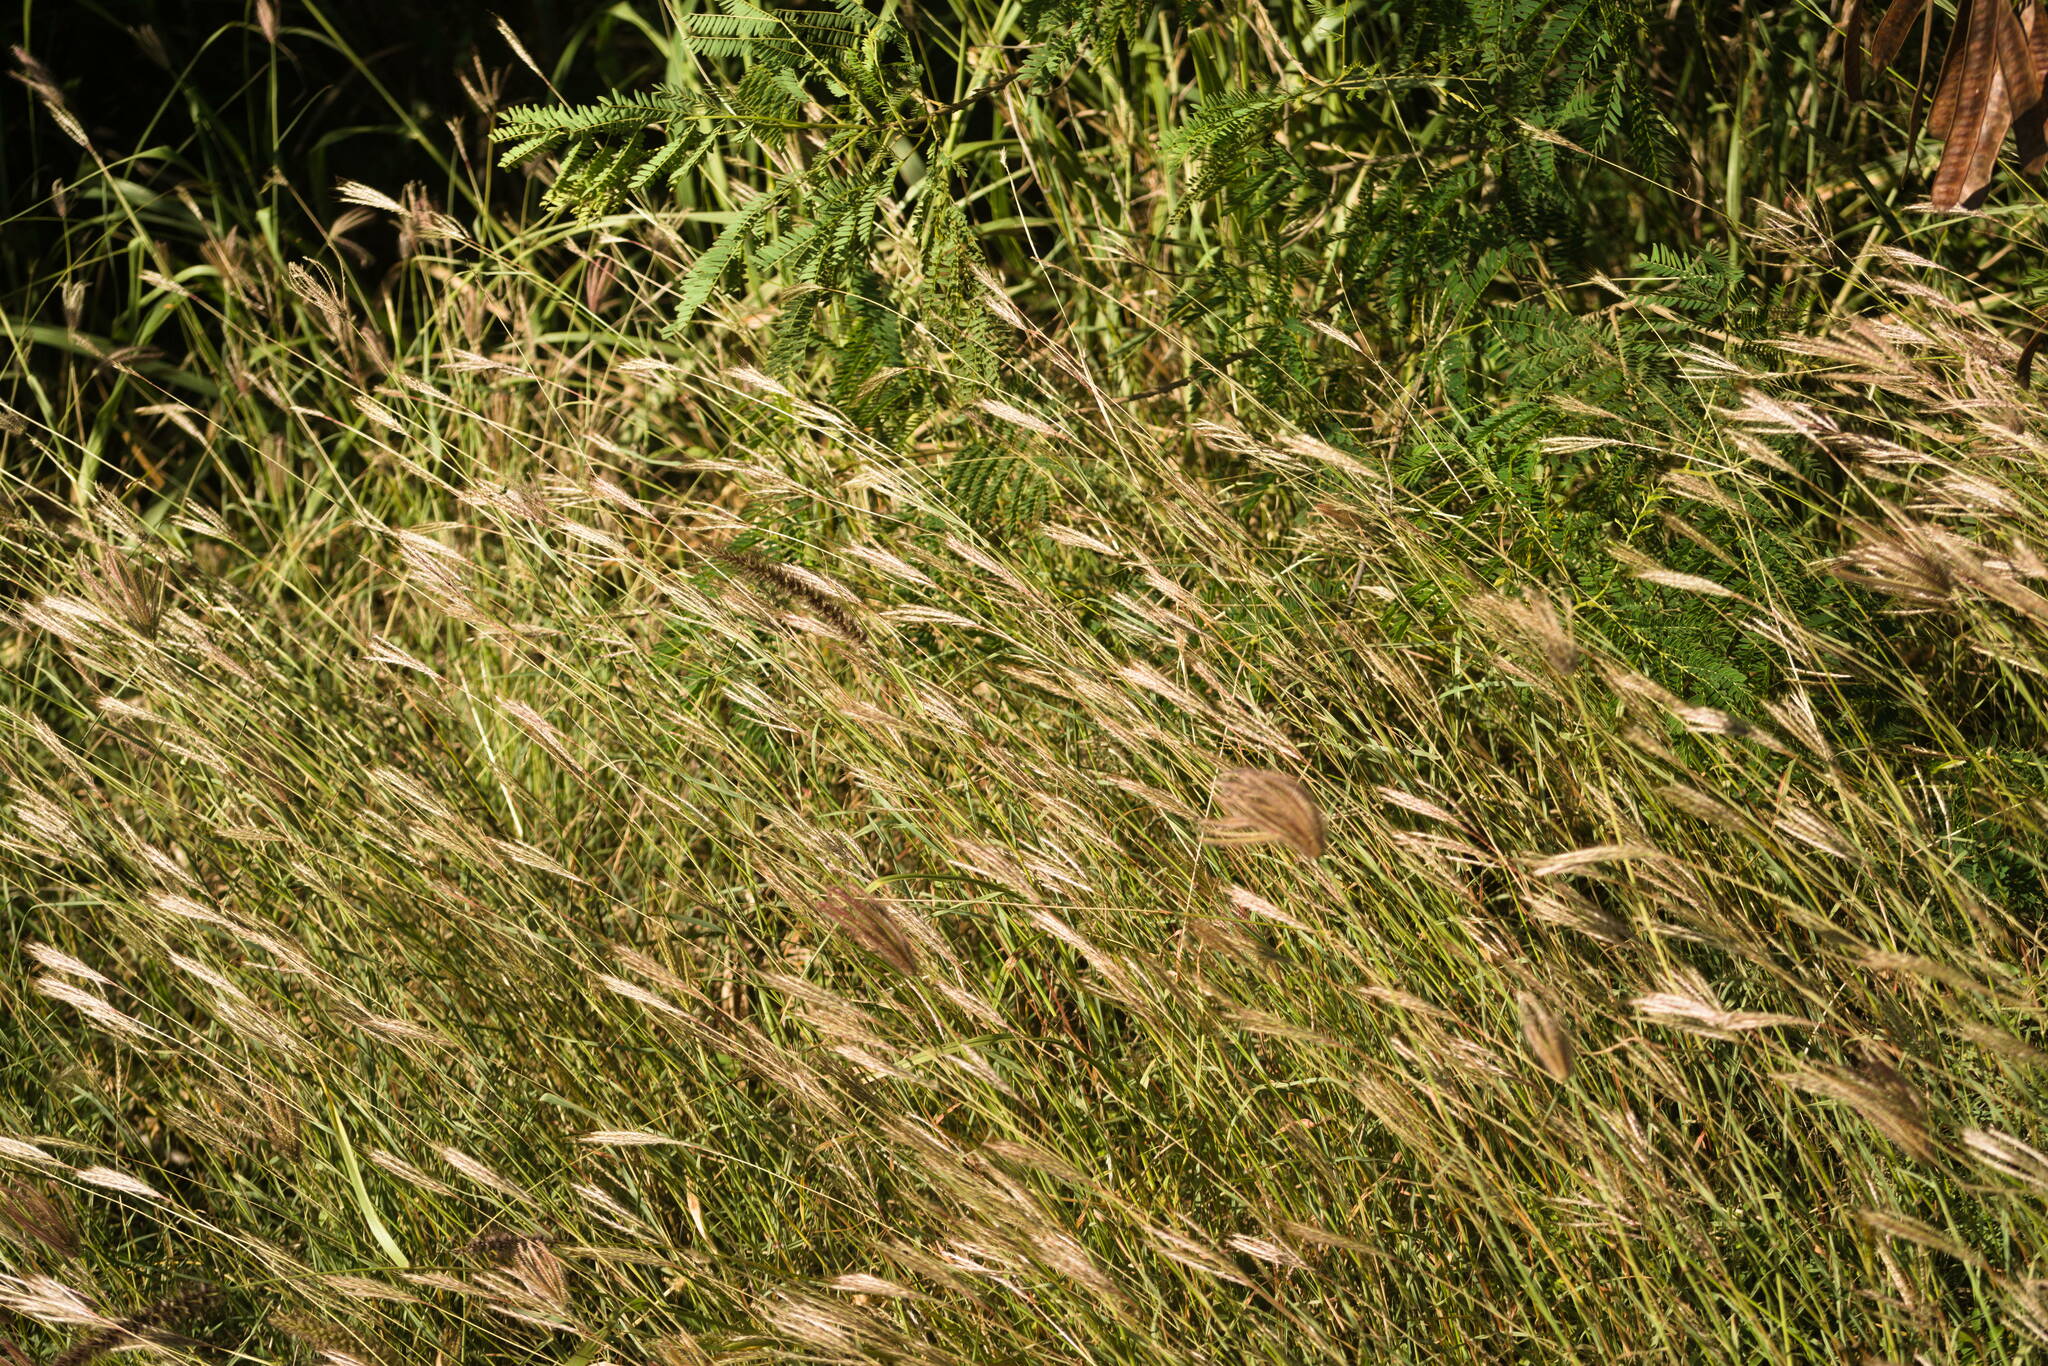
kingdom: Plantae
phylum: Tracheophyta
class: Liliopsida
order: Poales
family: Poaceae
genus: Bothriochloa
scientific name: Bothriochloa pertusa
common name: Pitted beardgrass
